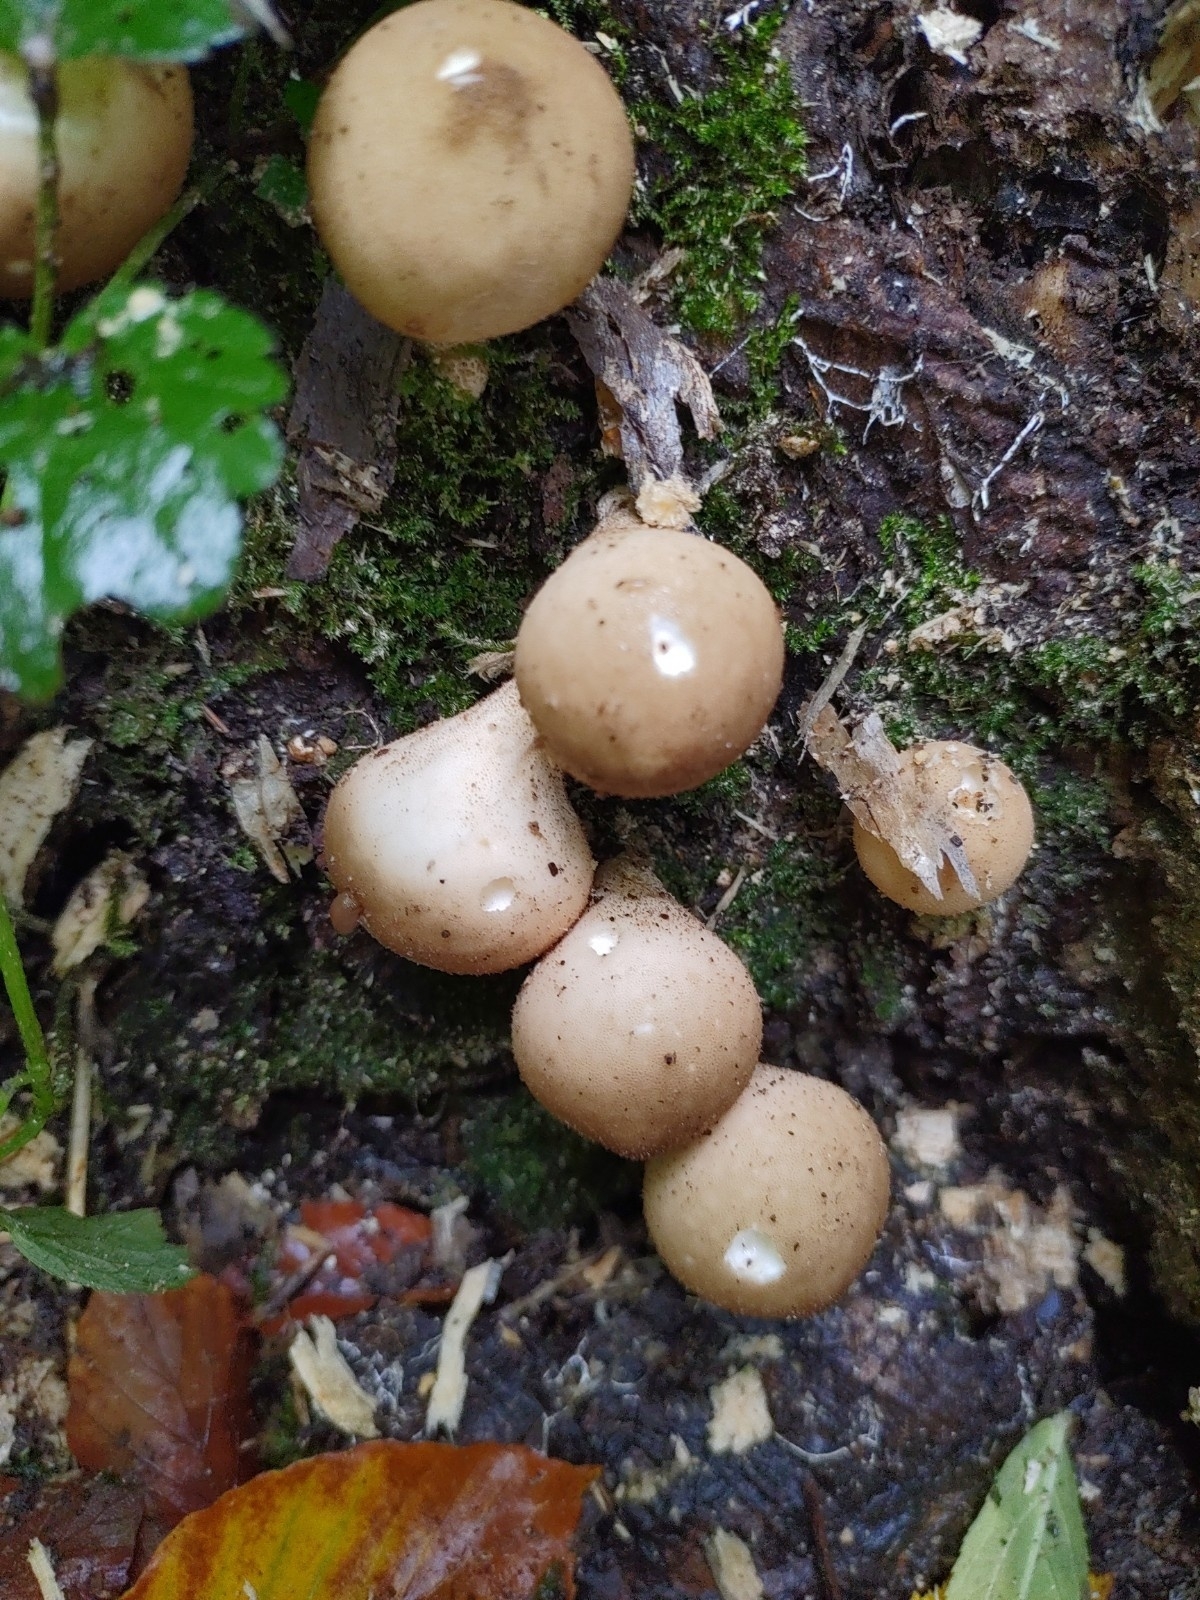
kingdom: Fungi
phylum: Basidiomycota
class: Agaricomycetes
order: Agaricales
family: Lycoperdaceae
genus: Apioperdon
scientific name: Apioperdon pyriforme
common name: Pear-shaped puffball
